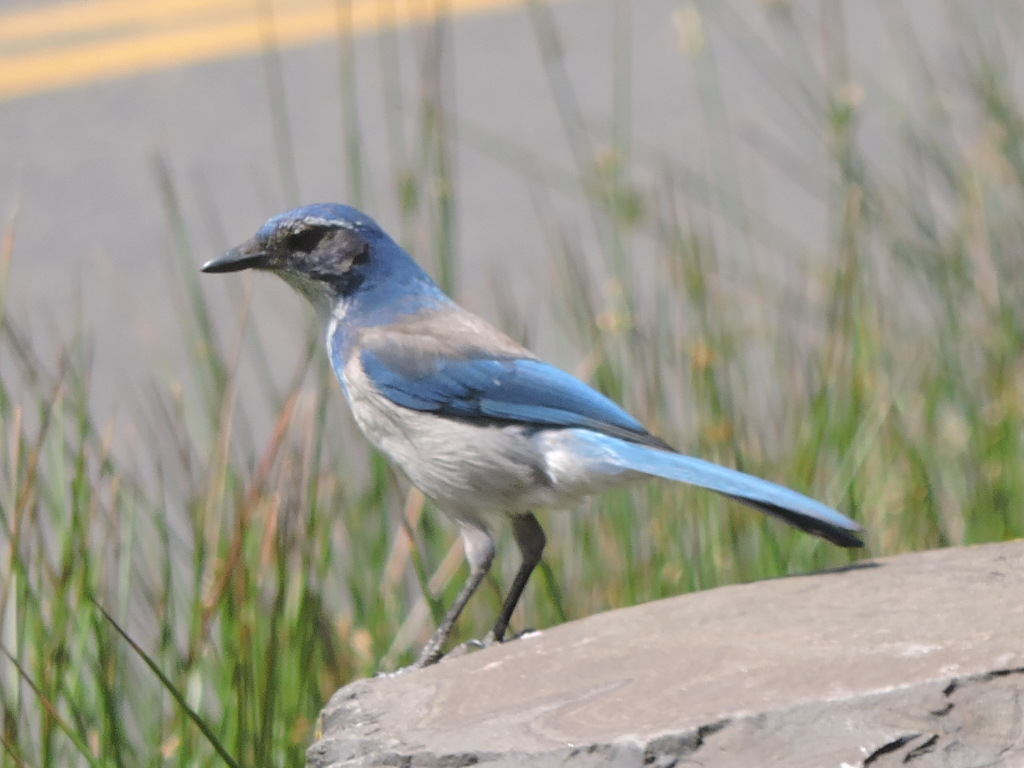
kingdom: Animalia
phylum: Chordata
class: Aves
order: Passeriformes
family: Corvidae
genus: Aphelocoma
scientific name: Aphelocoma californica
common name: California scrub-jay
